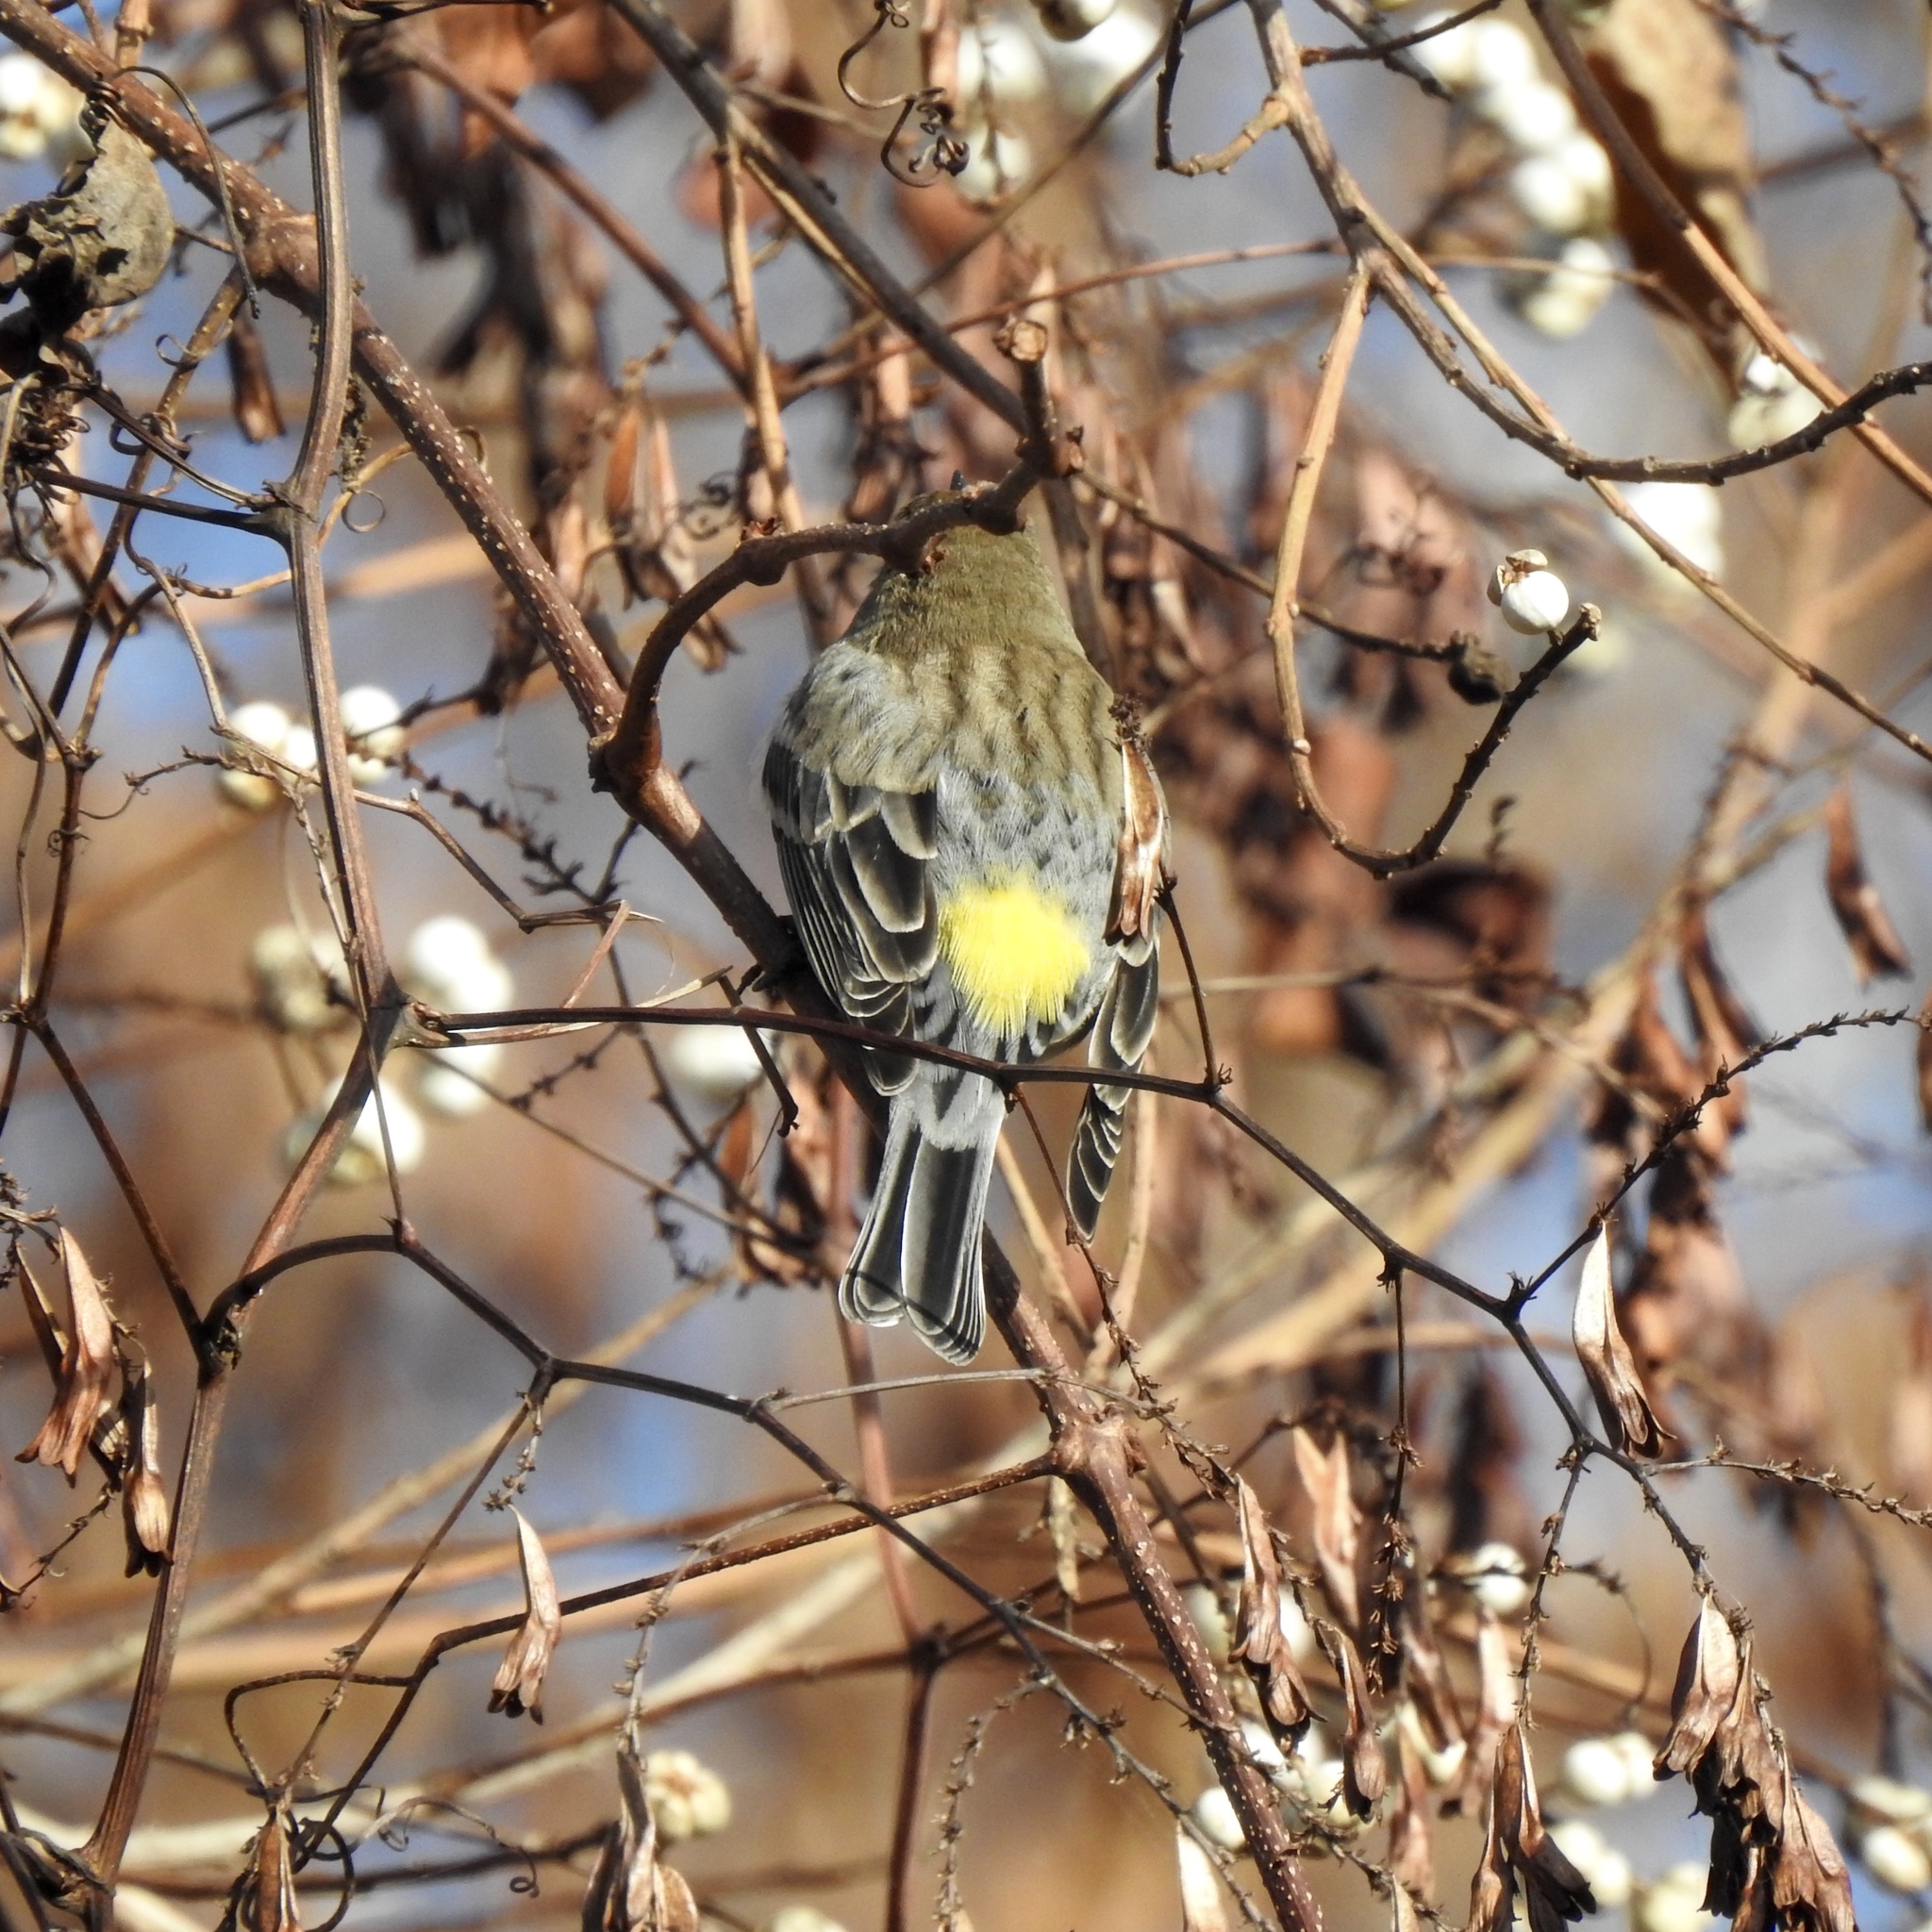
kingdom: Animalia
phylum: Chordata
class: Aves
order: Passeriformes
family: Parulidae
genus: Setophaga
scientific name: Setophaga coronata
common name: Myrtle warbler
